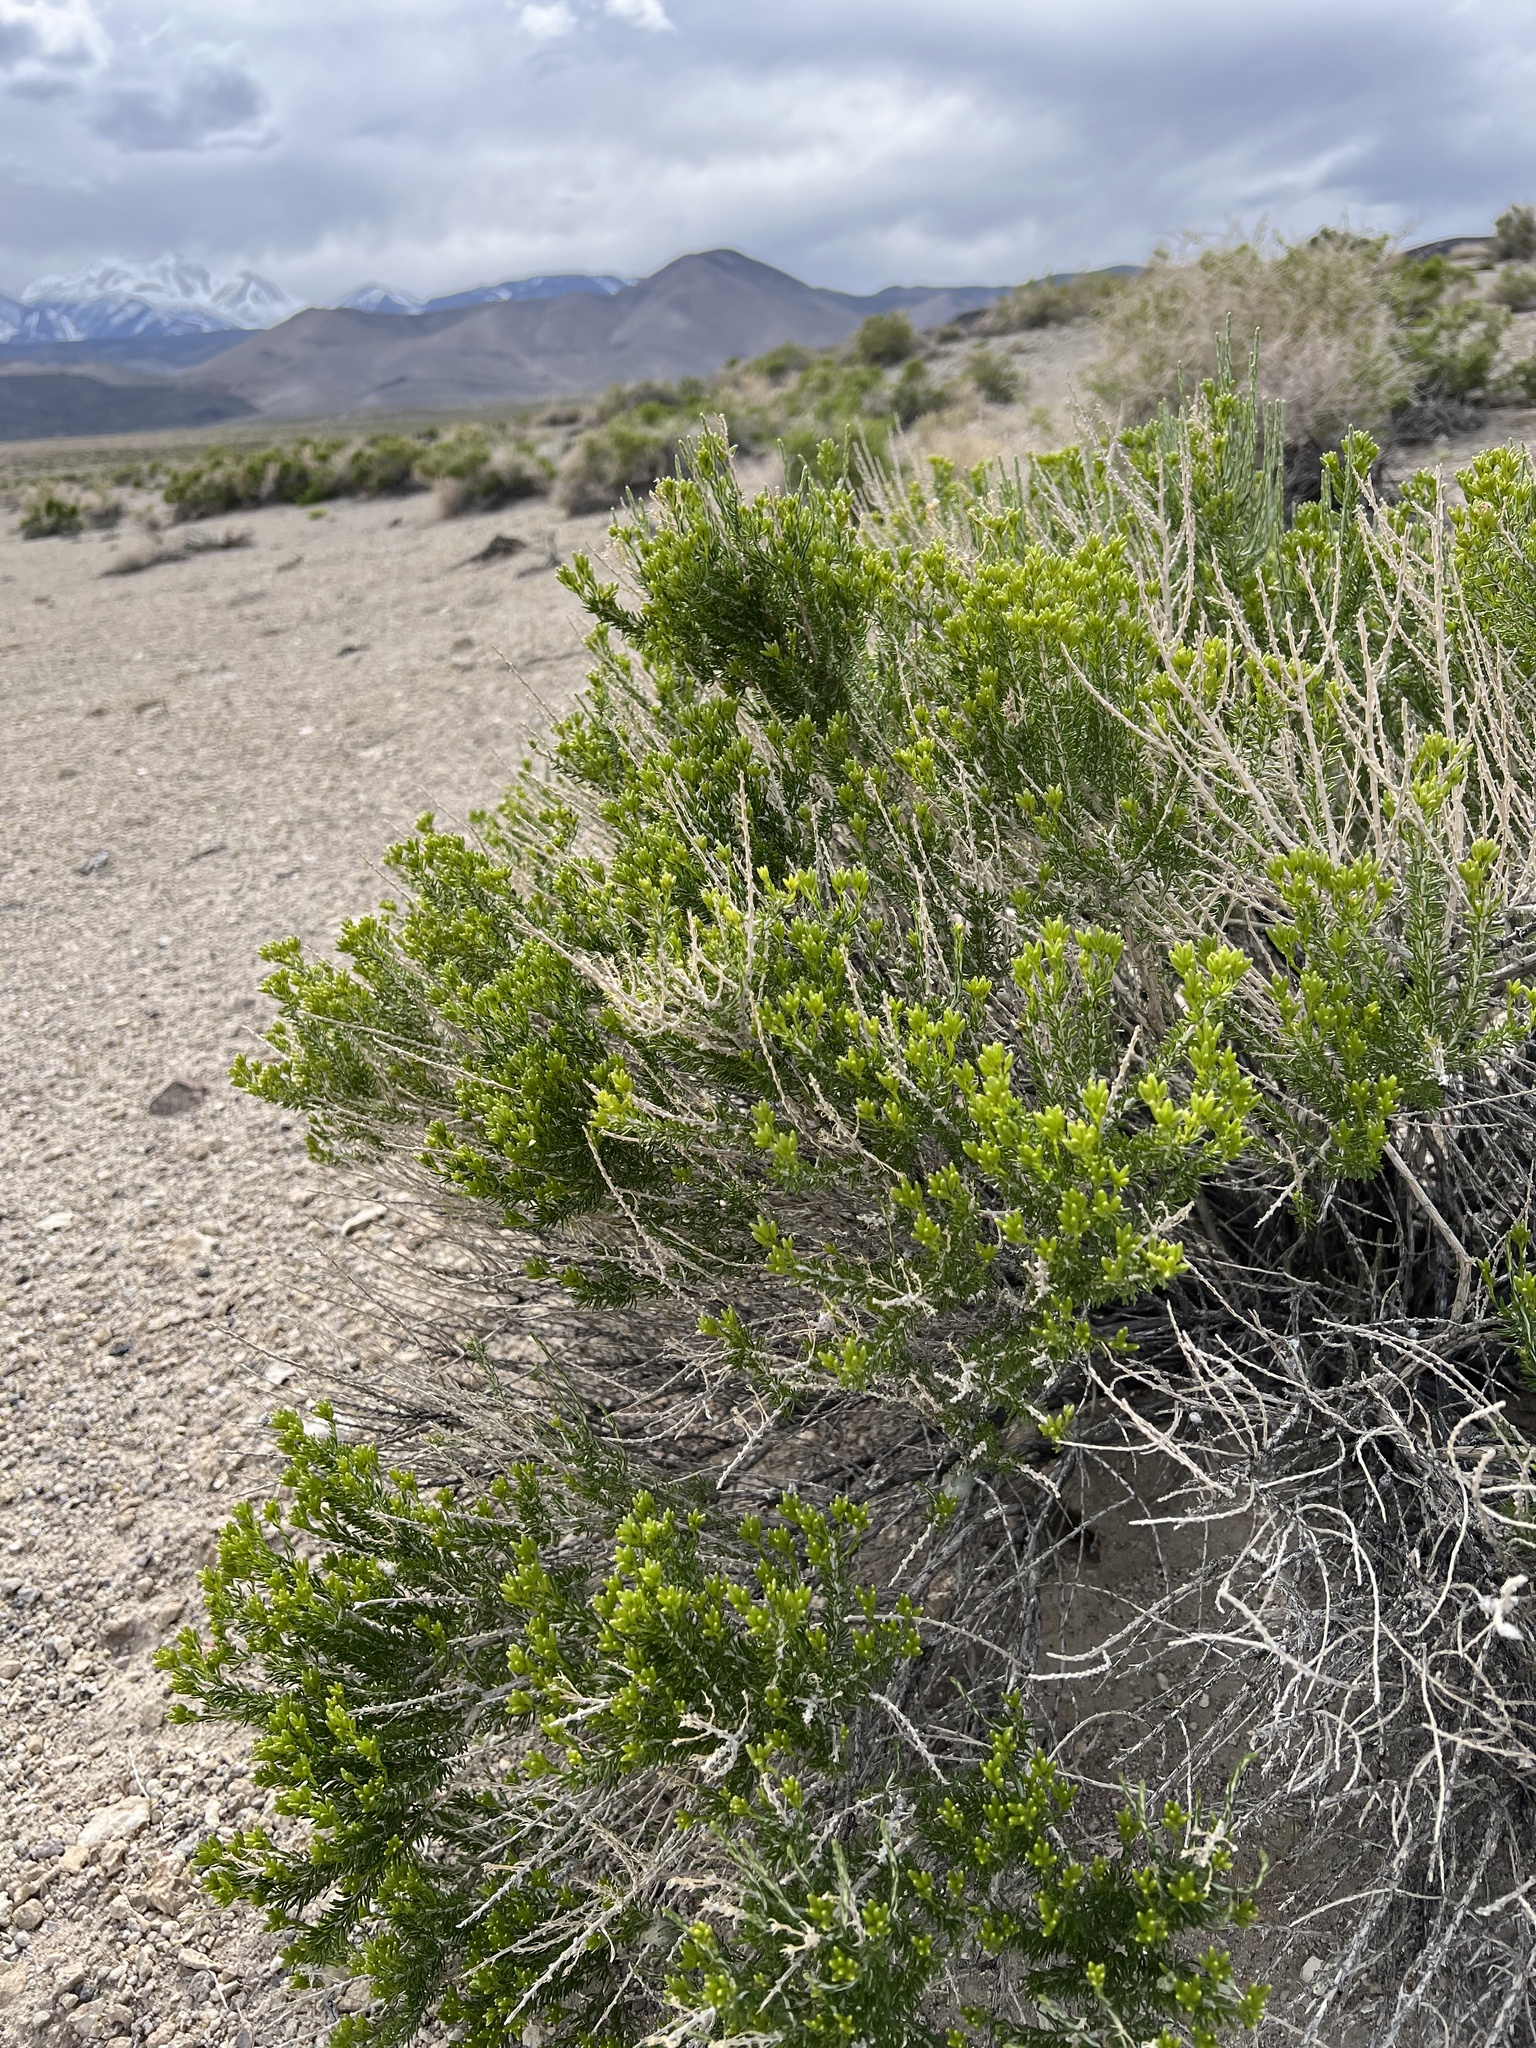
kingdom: Plantae
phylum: Tracheophyta
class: Magnoliopsida
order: Asterales
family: Asteraceae
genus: Tetradymia
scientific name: Tetradymia glabrata
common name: Smooth tetradymia
